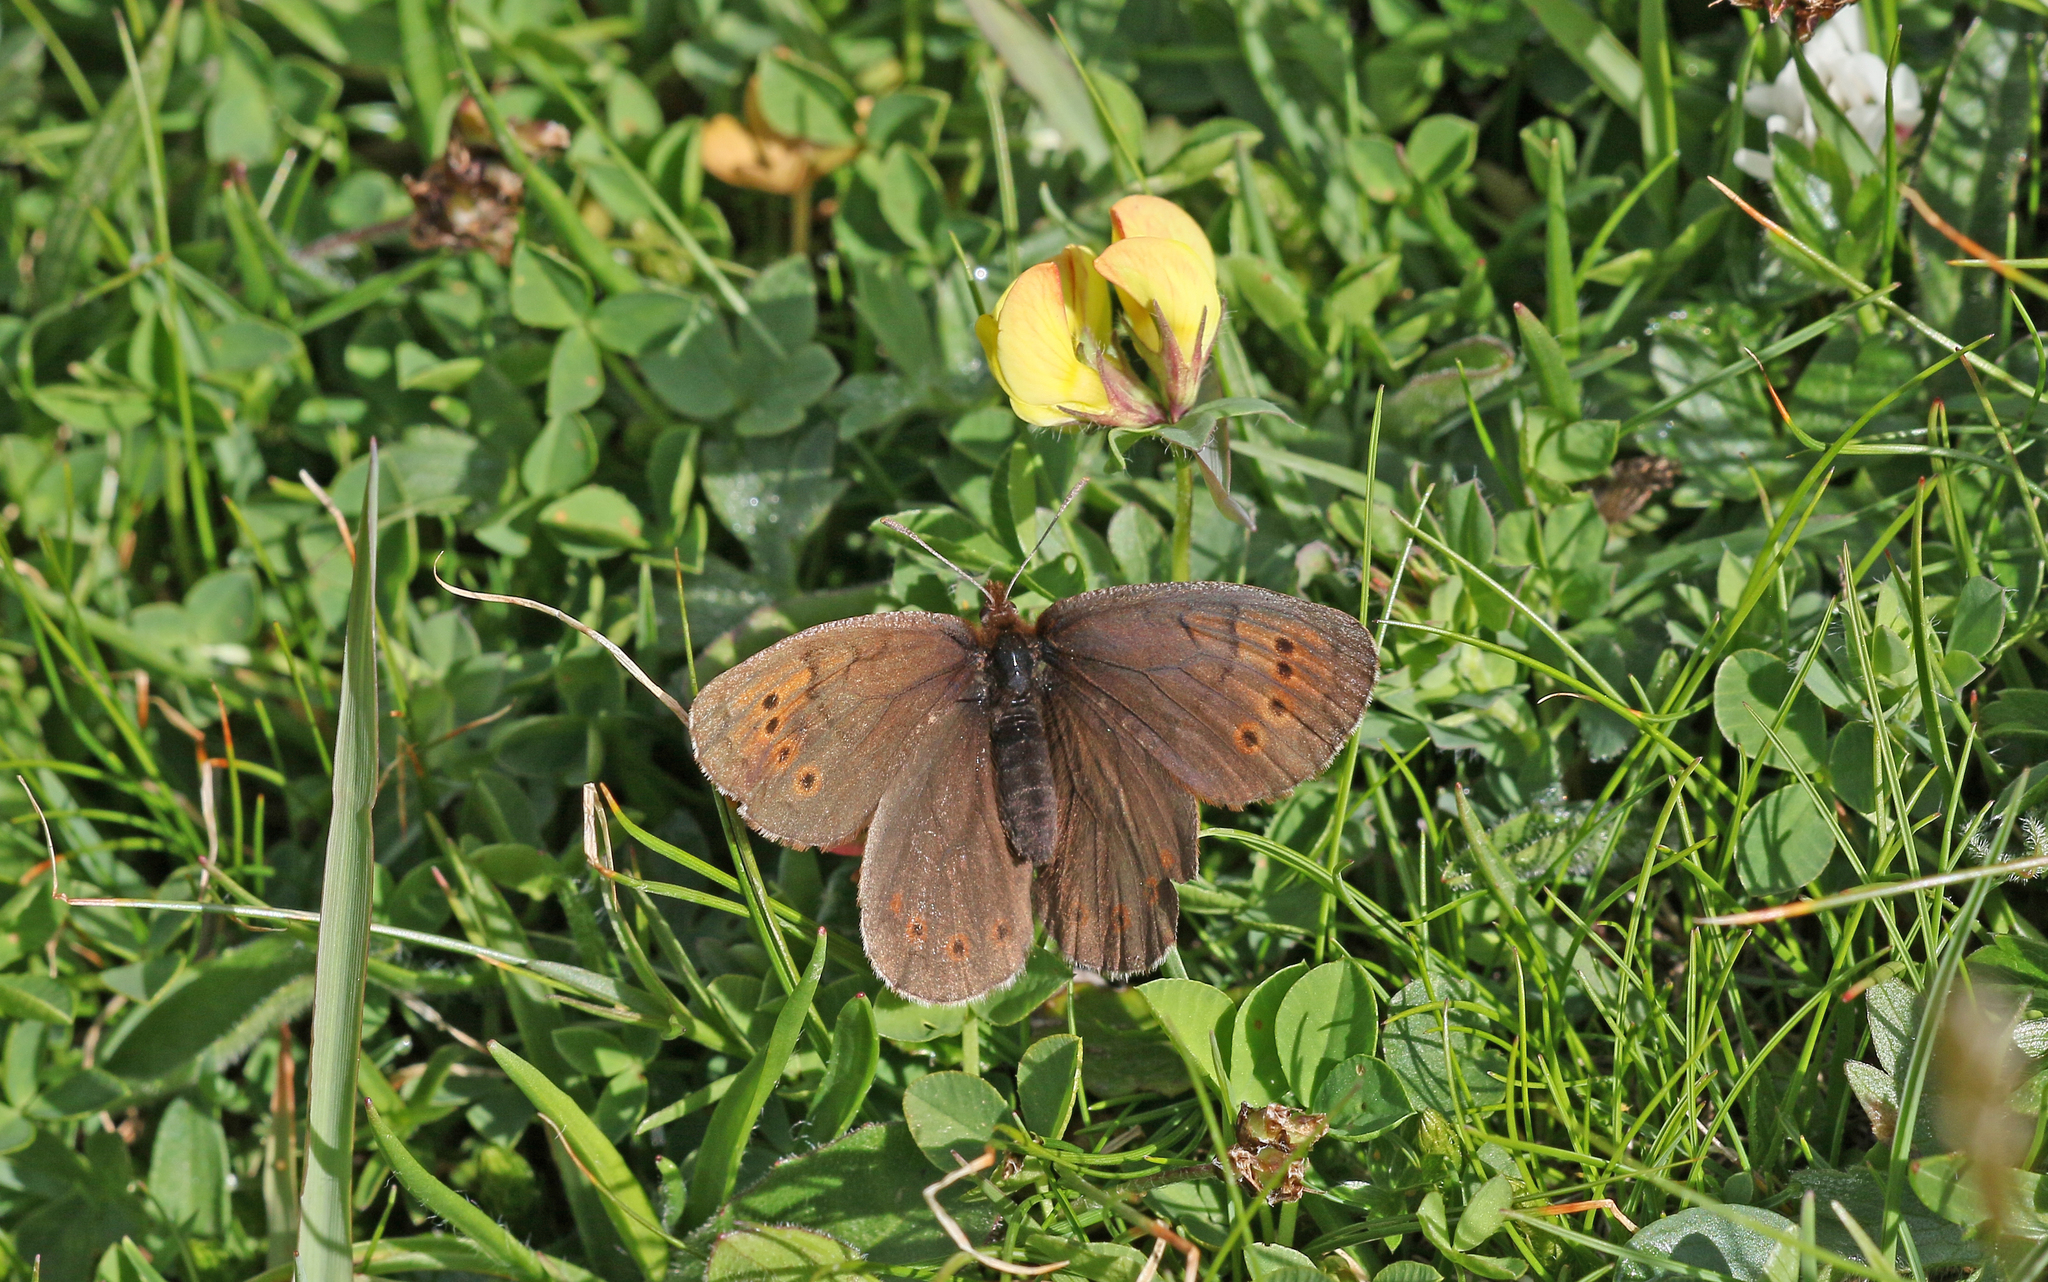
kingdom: Animalia
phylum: Arthropoda
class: Insecta
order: Lepidoptera
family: Nymphalidae
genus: Erebia
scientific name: Erebia pandrose
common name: Dewy ringlet
